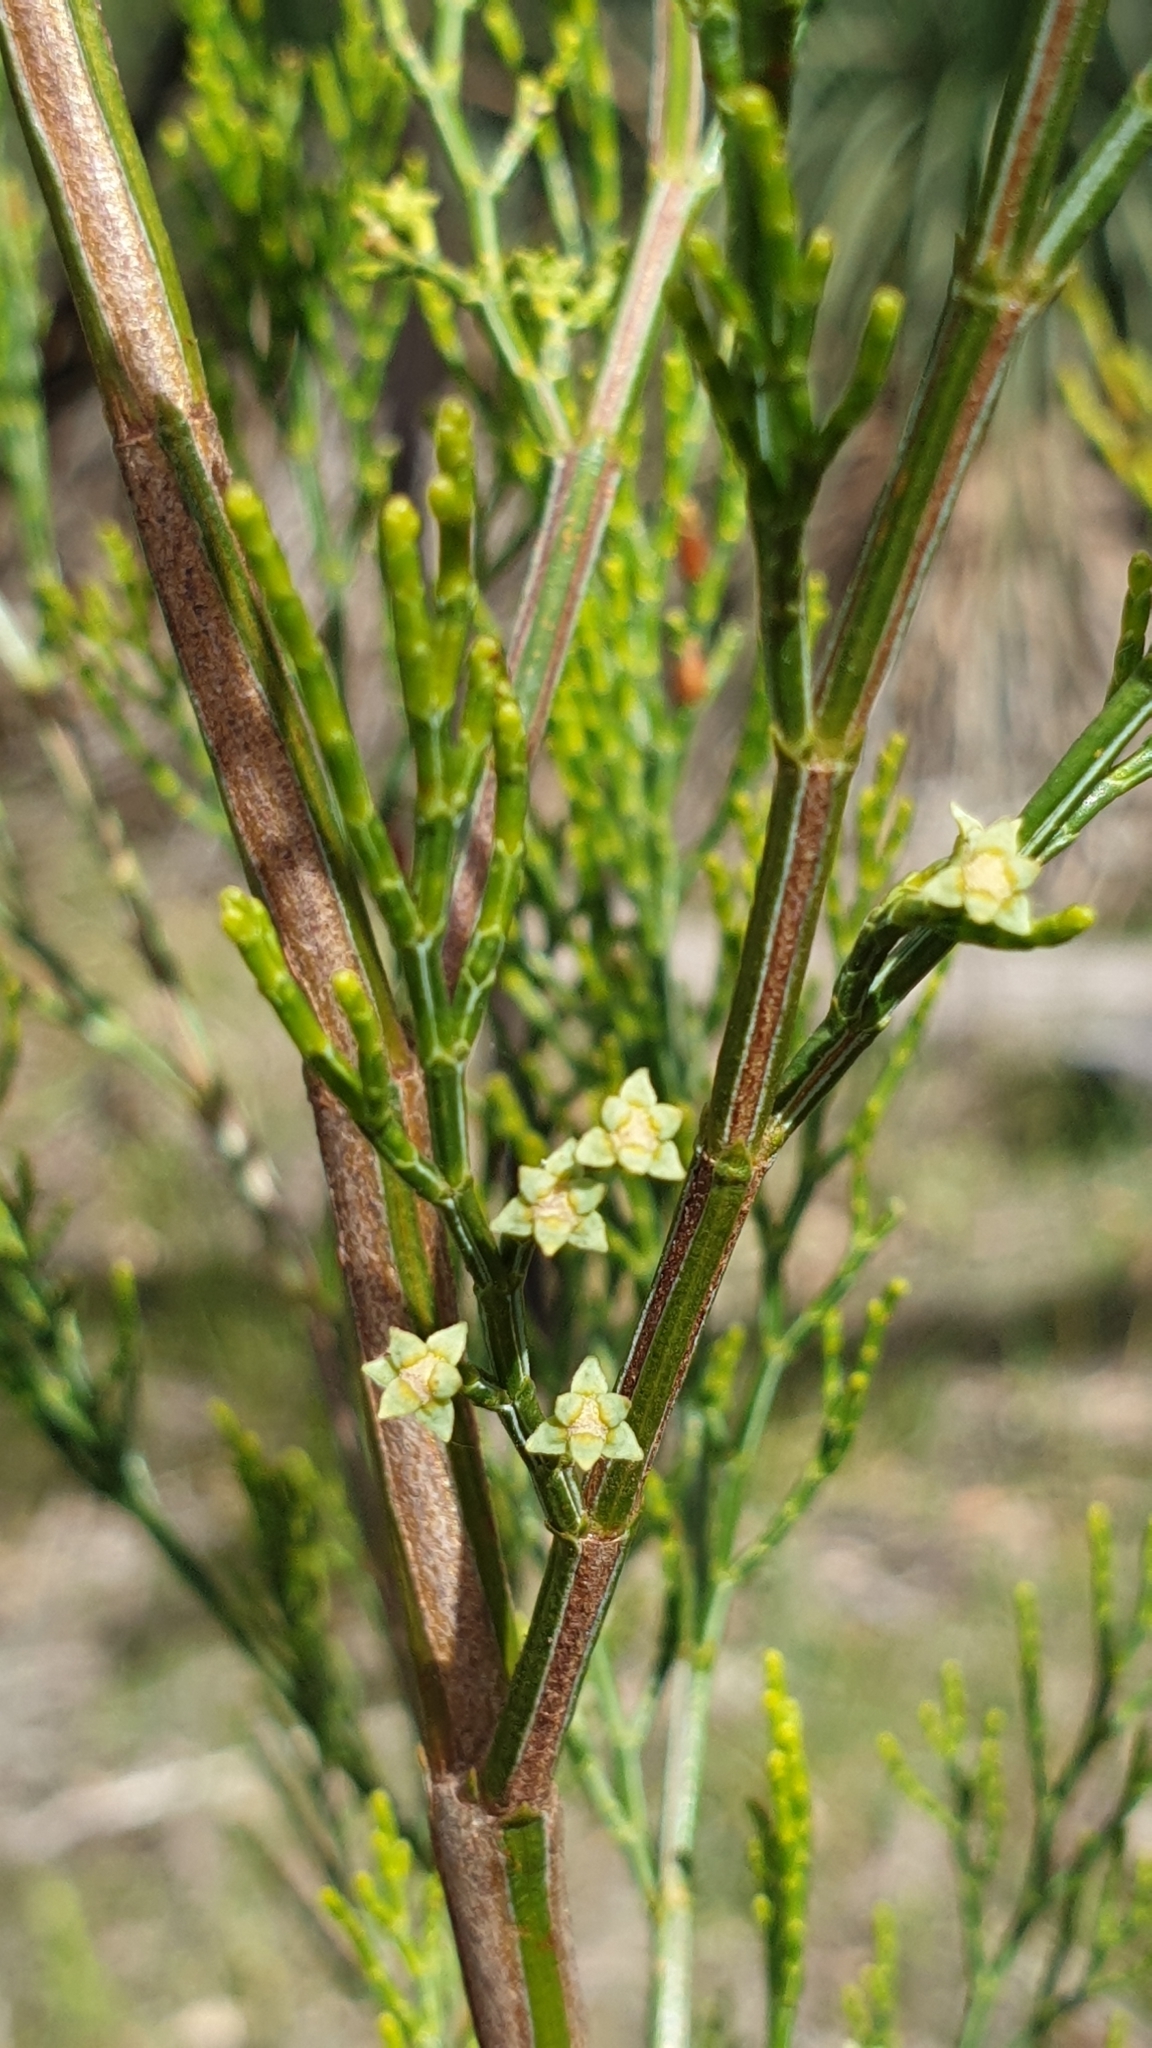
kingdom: Plantae
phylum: Tracheophyta
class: Pinopsida
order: Pinales
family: Cupressaceae
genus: Callitris
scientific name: Callitris preissii
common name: Mallee pine
